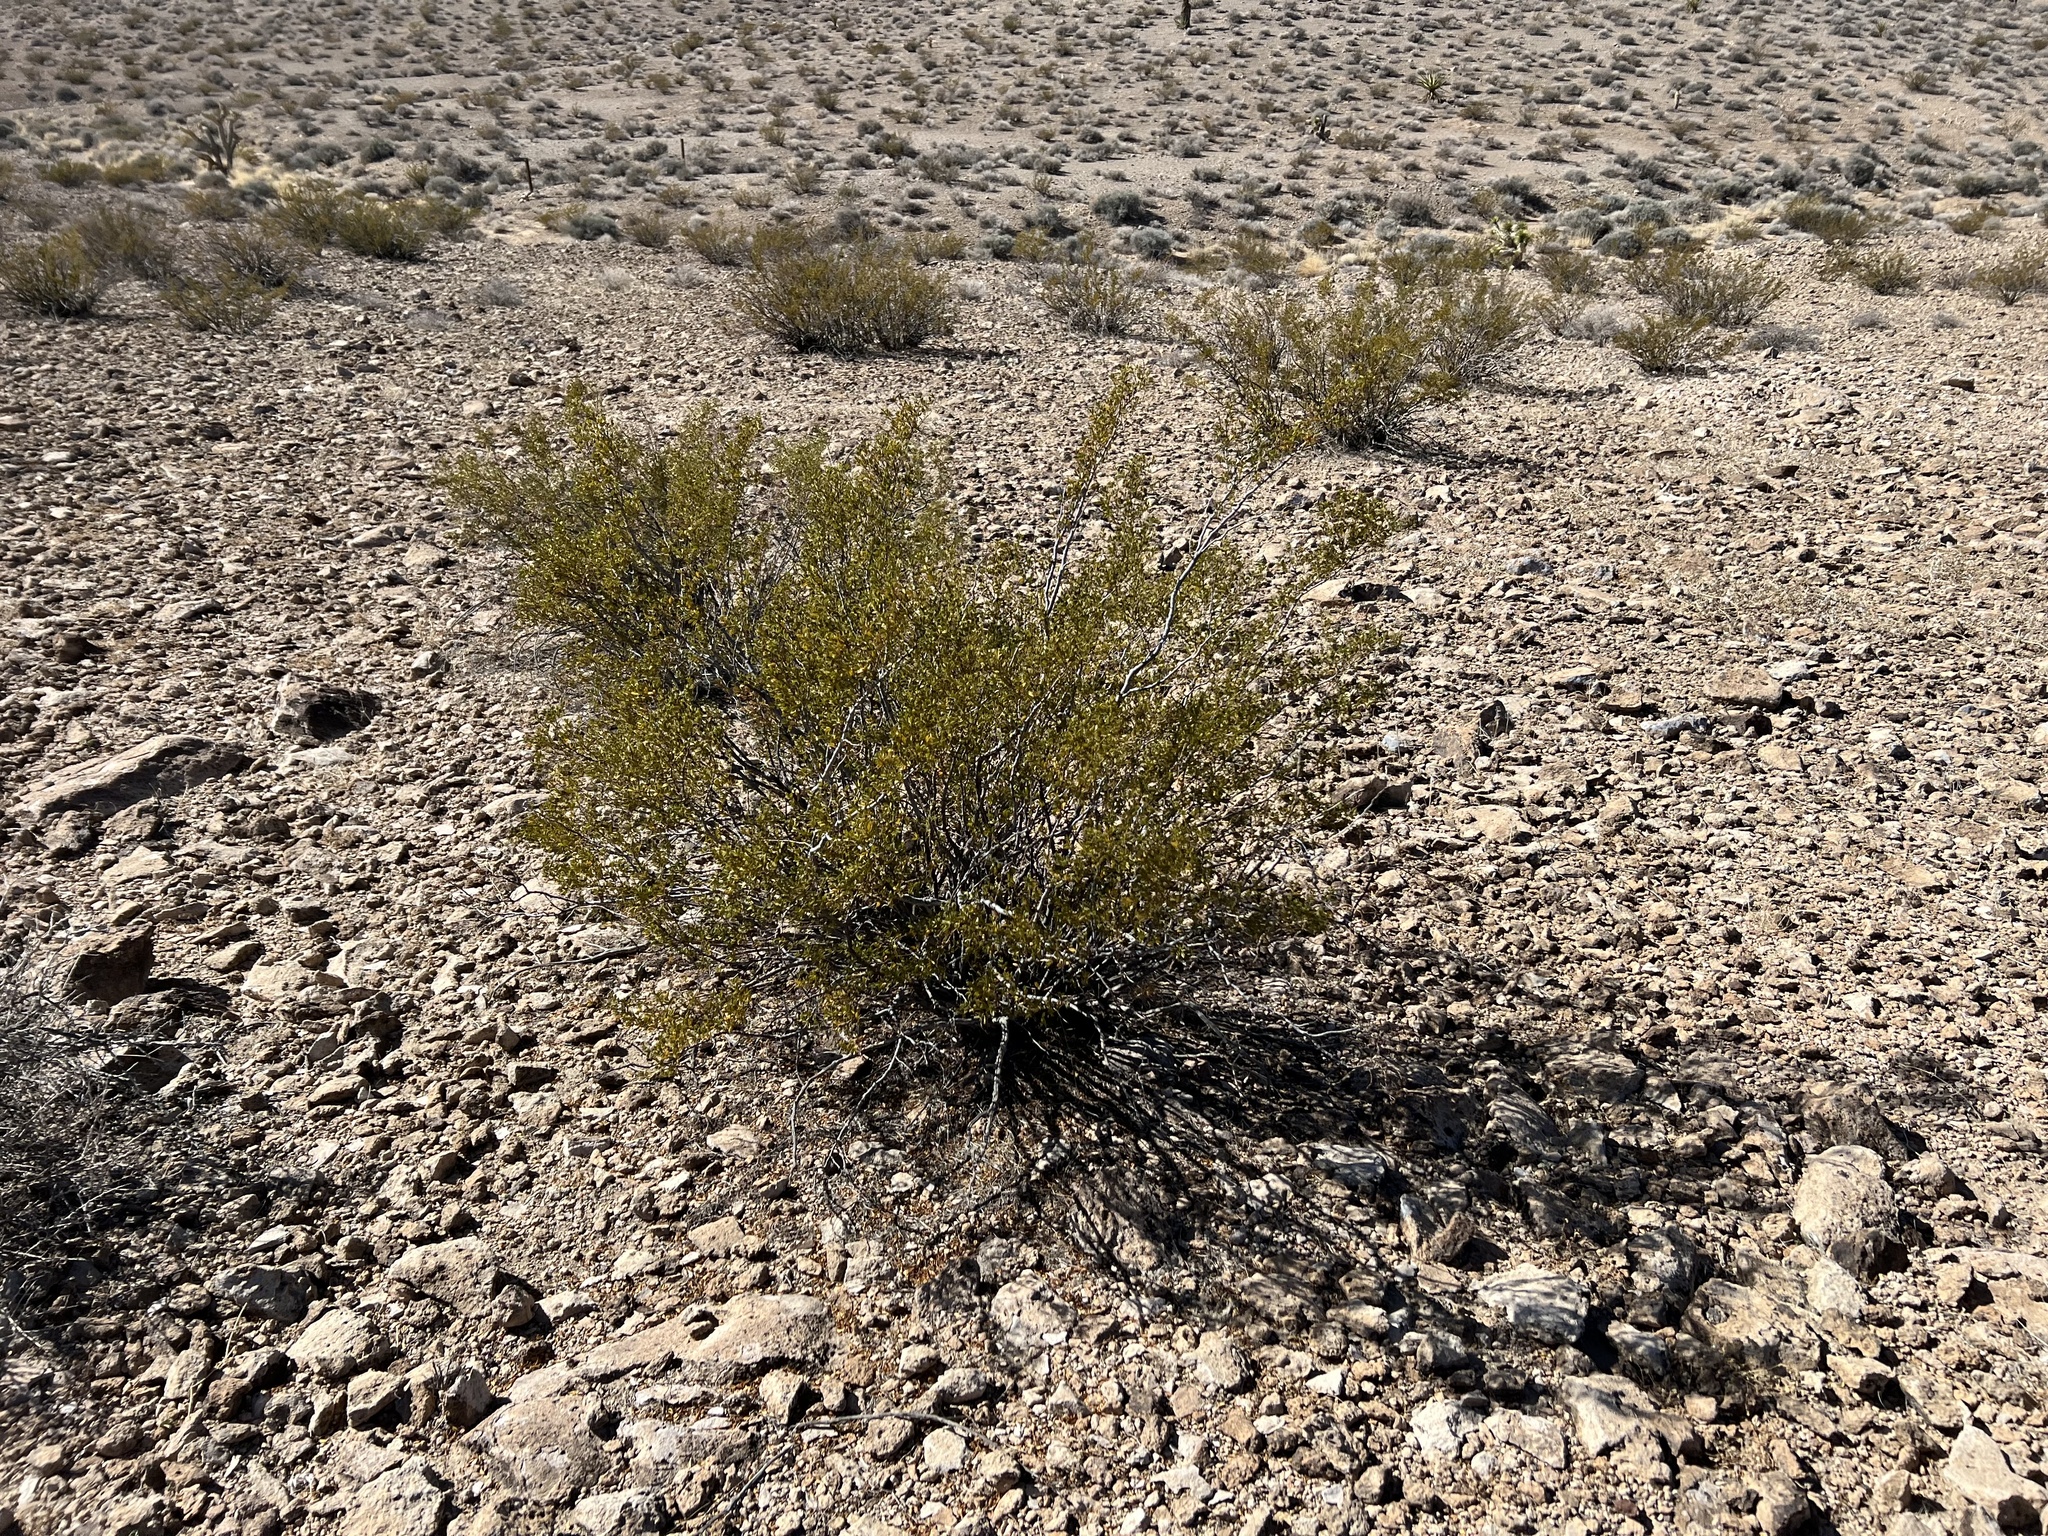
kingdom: Plantae
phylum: Tracheophyta
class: Magnoliopsida
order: Zygophyllales
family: Zygophyllaceae
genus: Larrea
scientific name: Larrea tridentata
